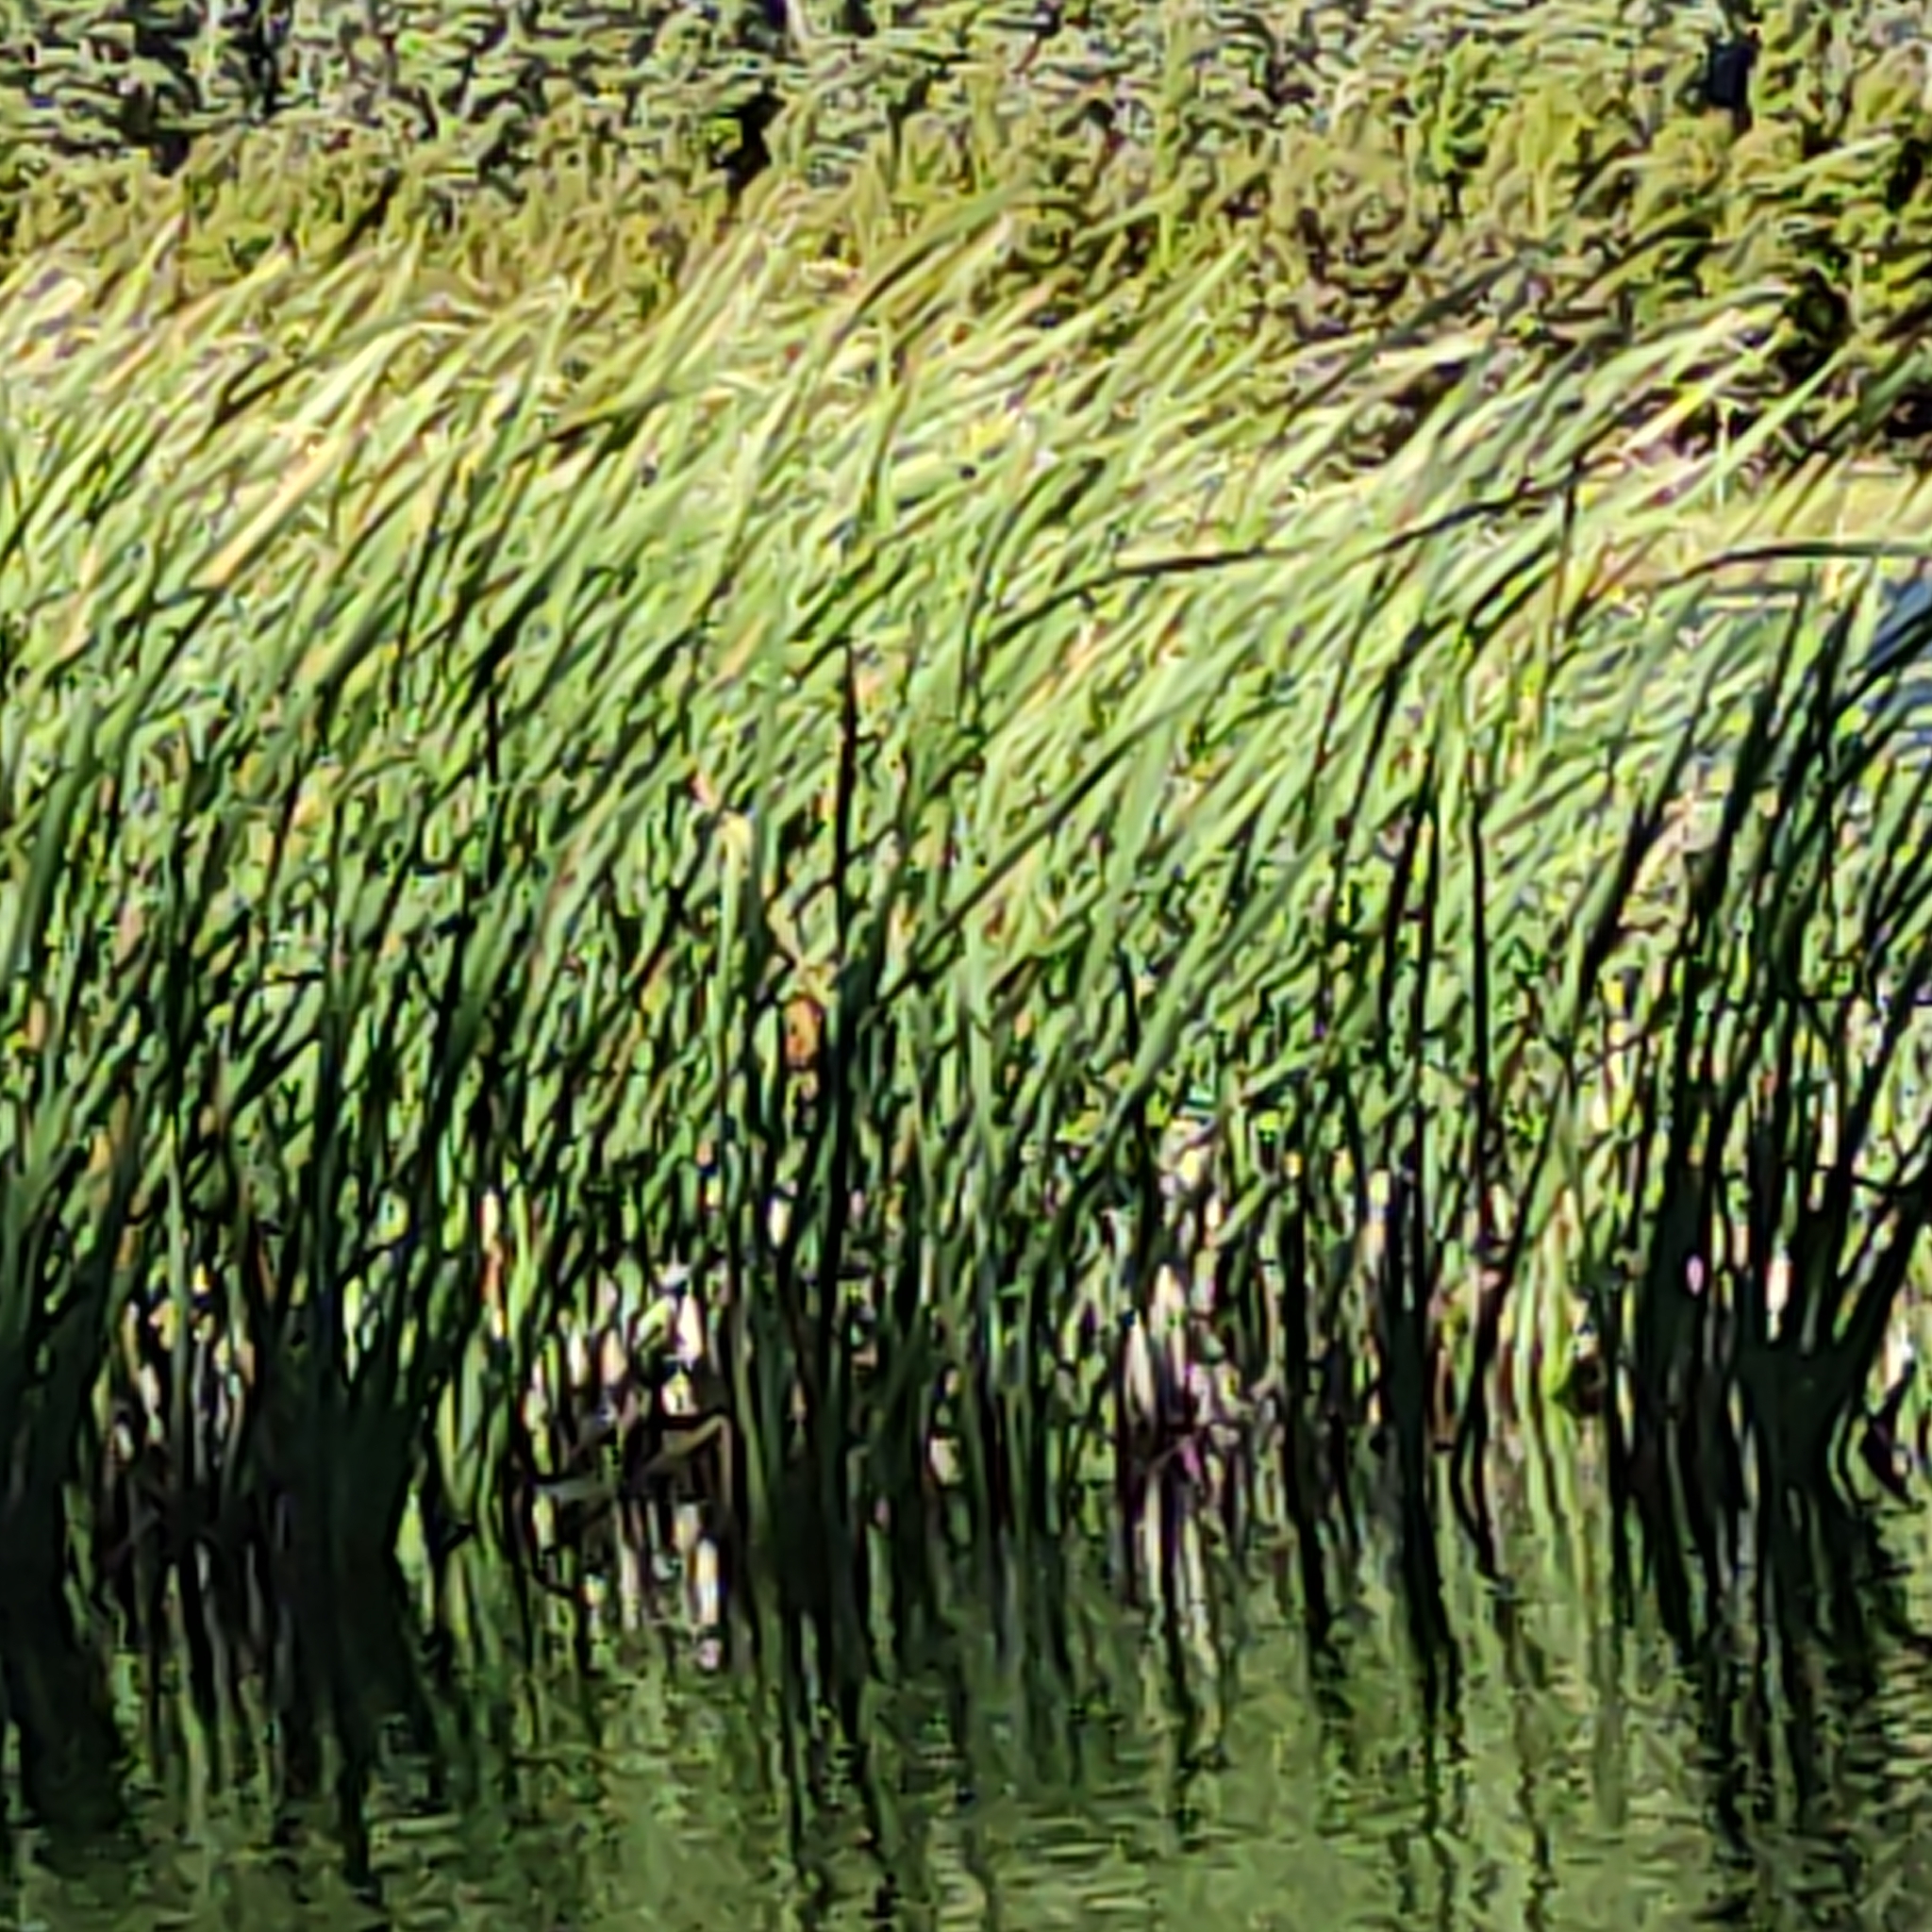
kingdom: Plantae
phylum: Tracheophyta
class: Liliopsida
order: Poales
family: Typhaceae
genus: Typha
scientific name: Typha orientalis
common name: Bullrush
